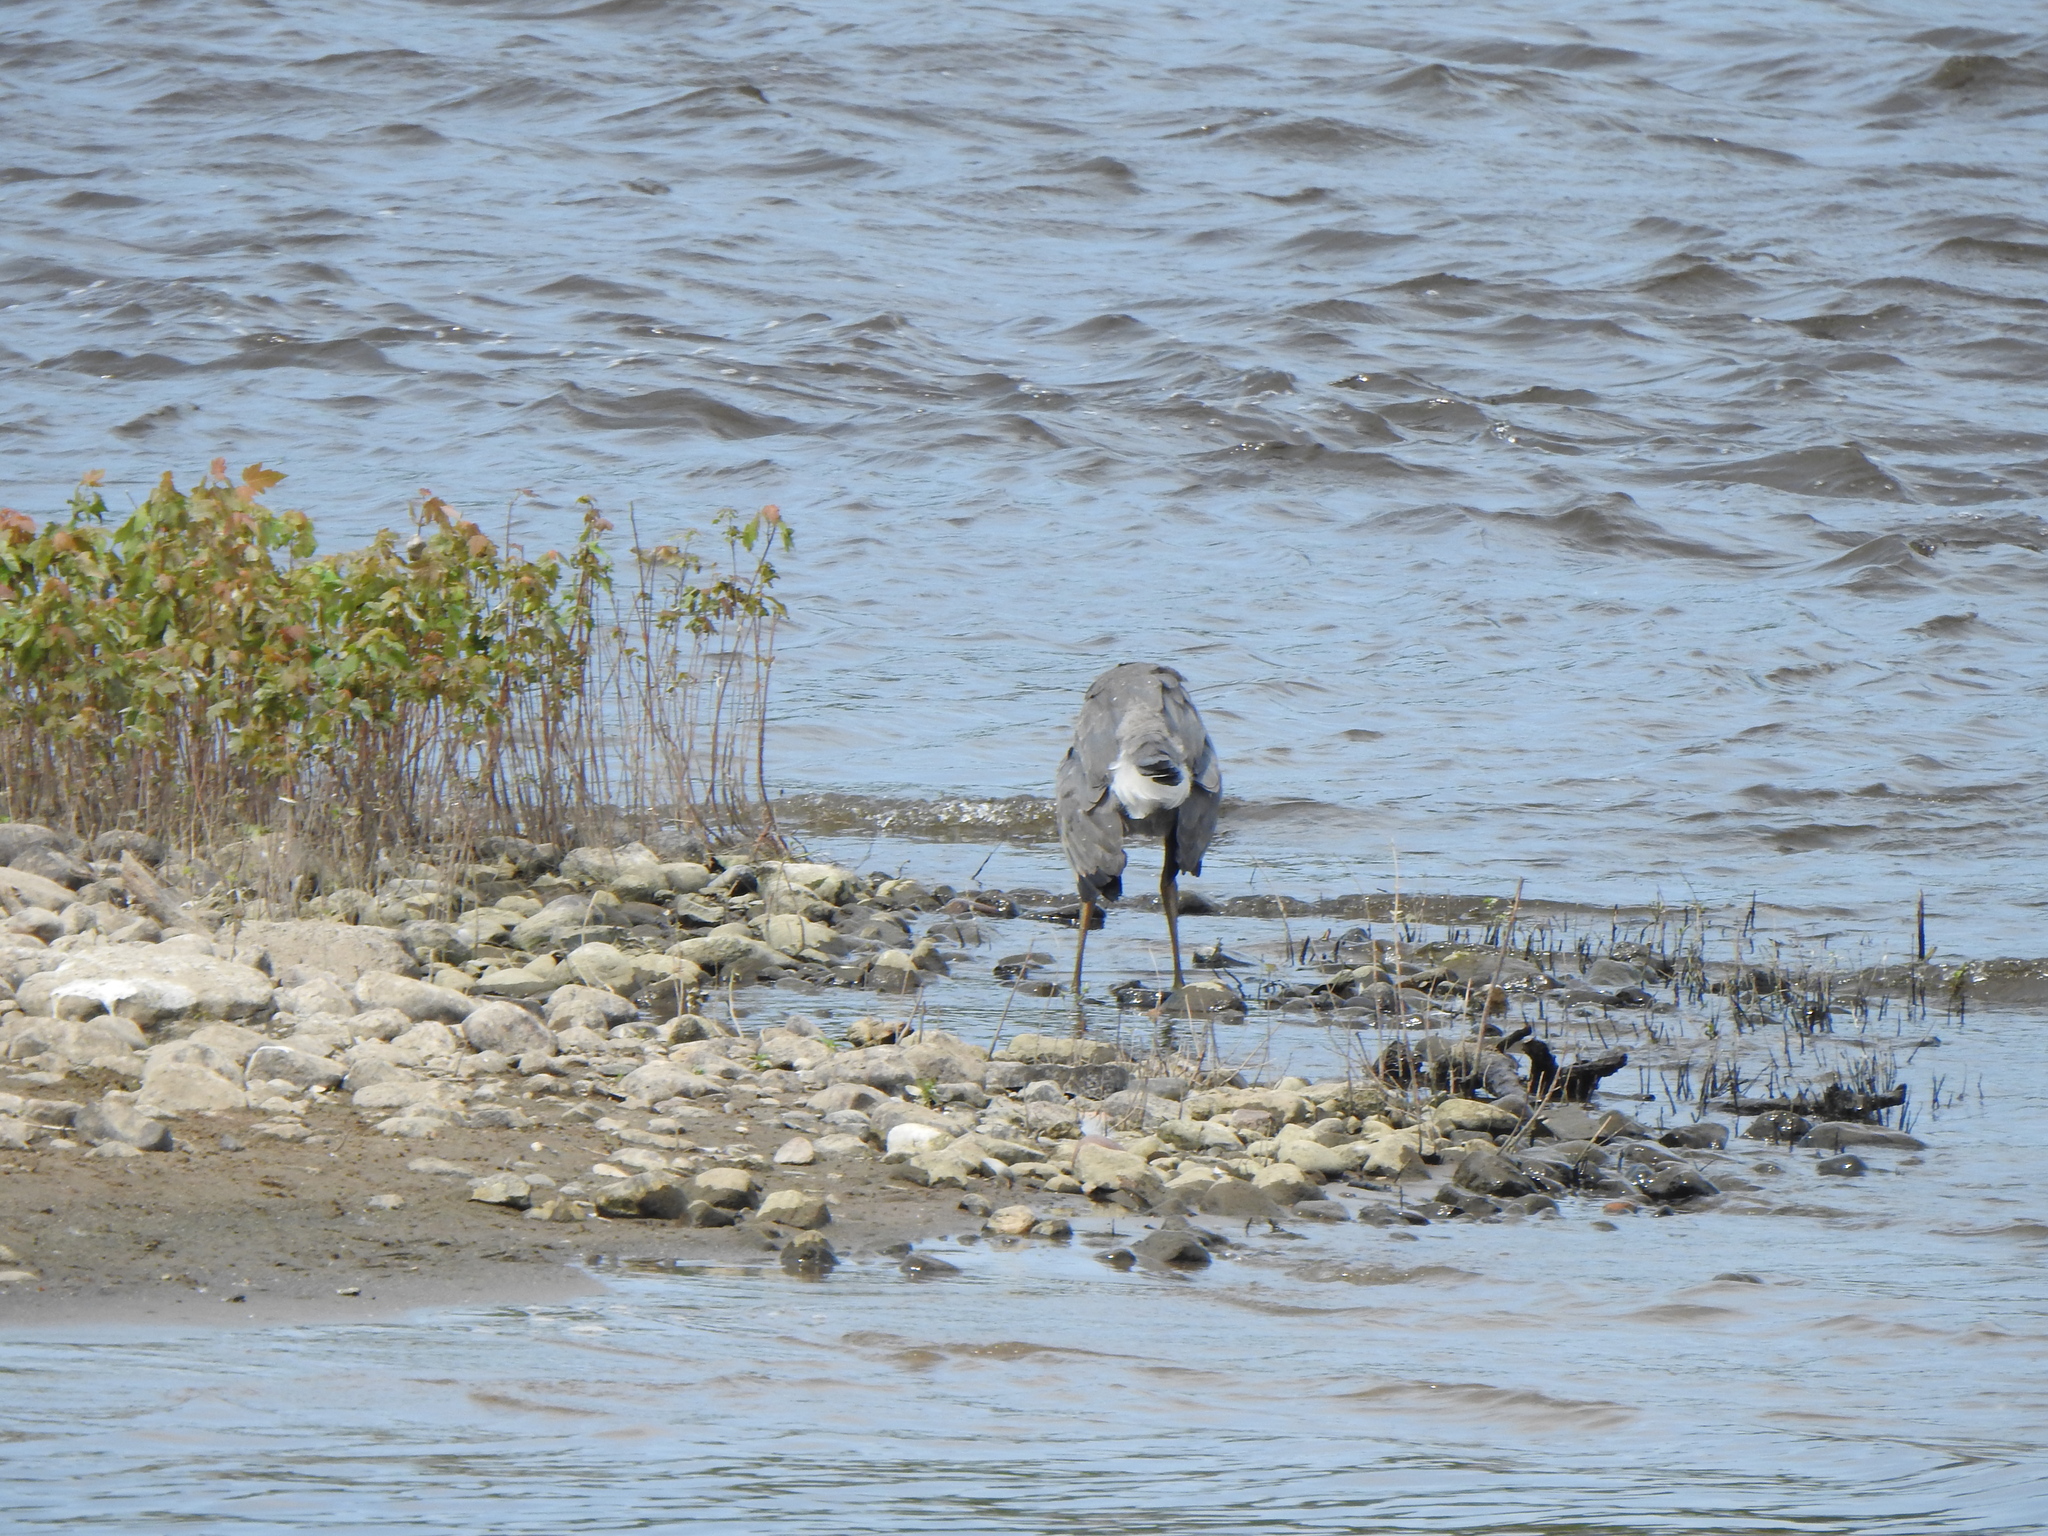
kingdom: Animalia
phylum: Chordata
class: Aves
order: Pelecaniformes
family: Ardeidae
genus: Ardea
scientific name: Ardea herodias
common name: Great blue heron
